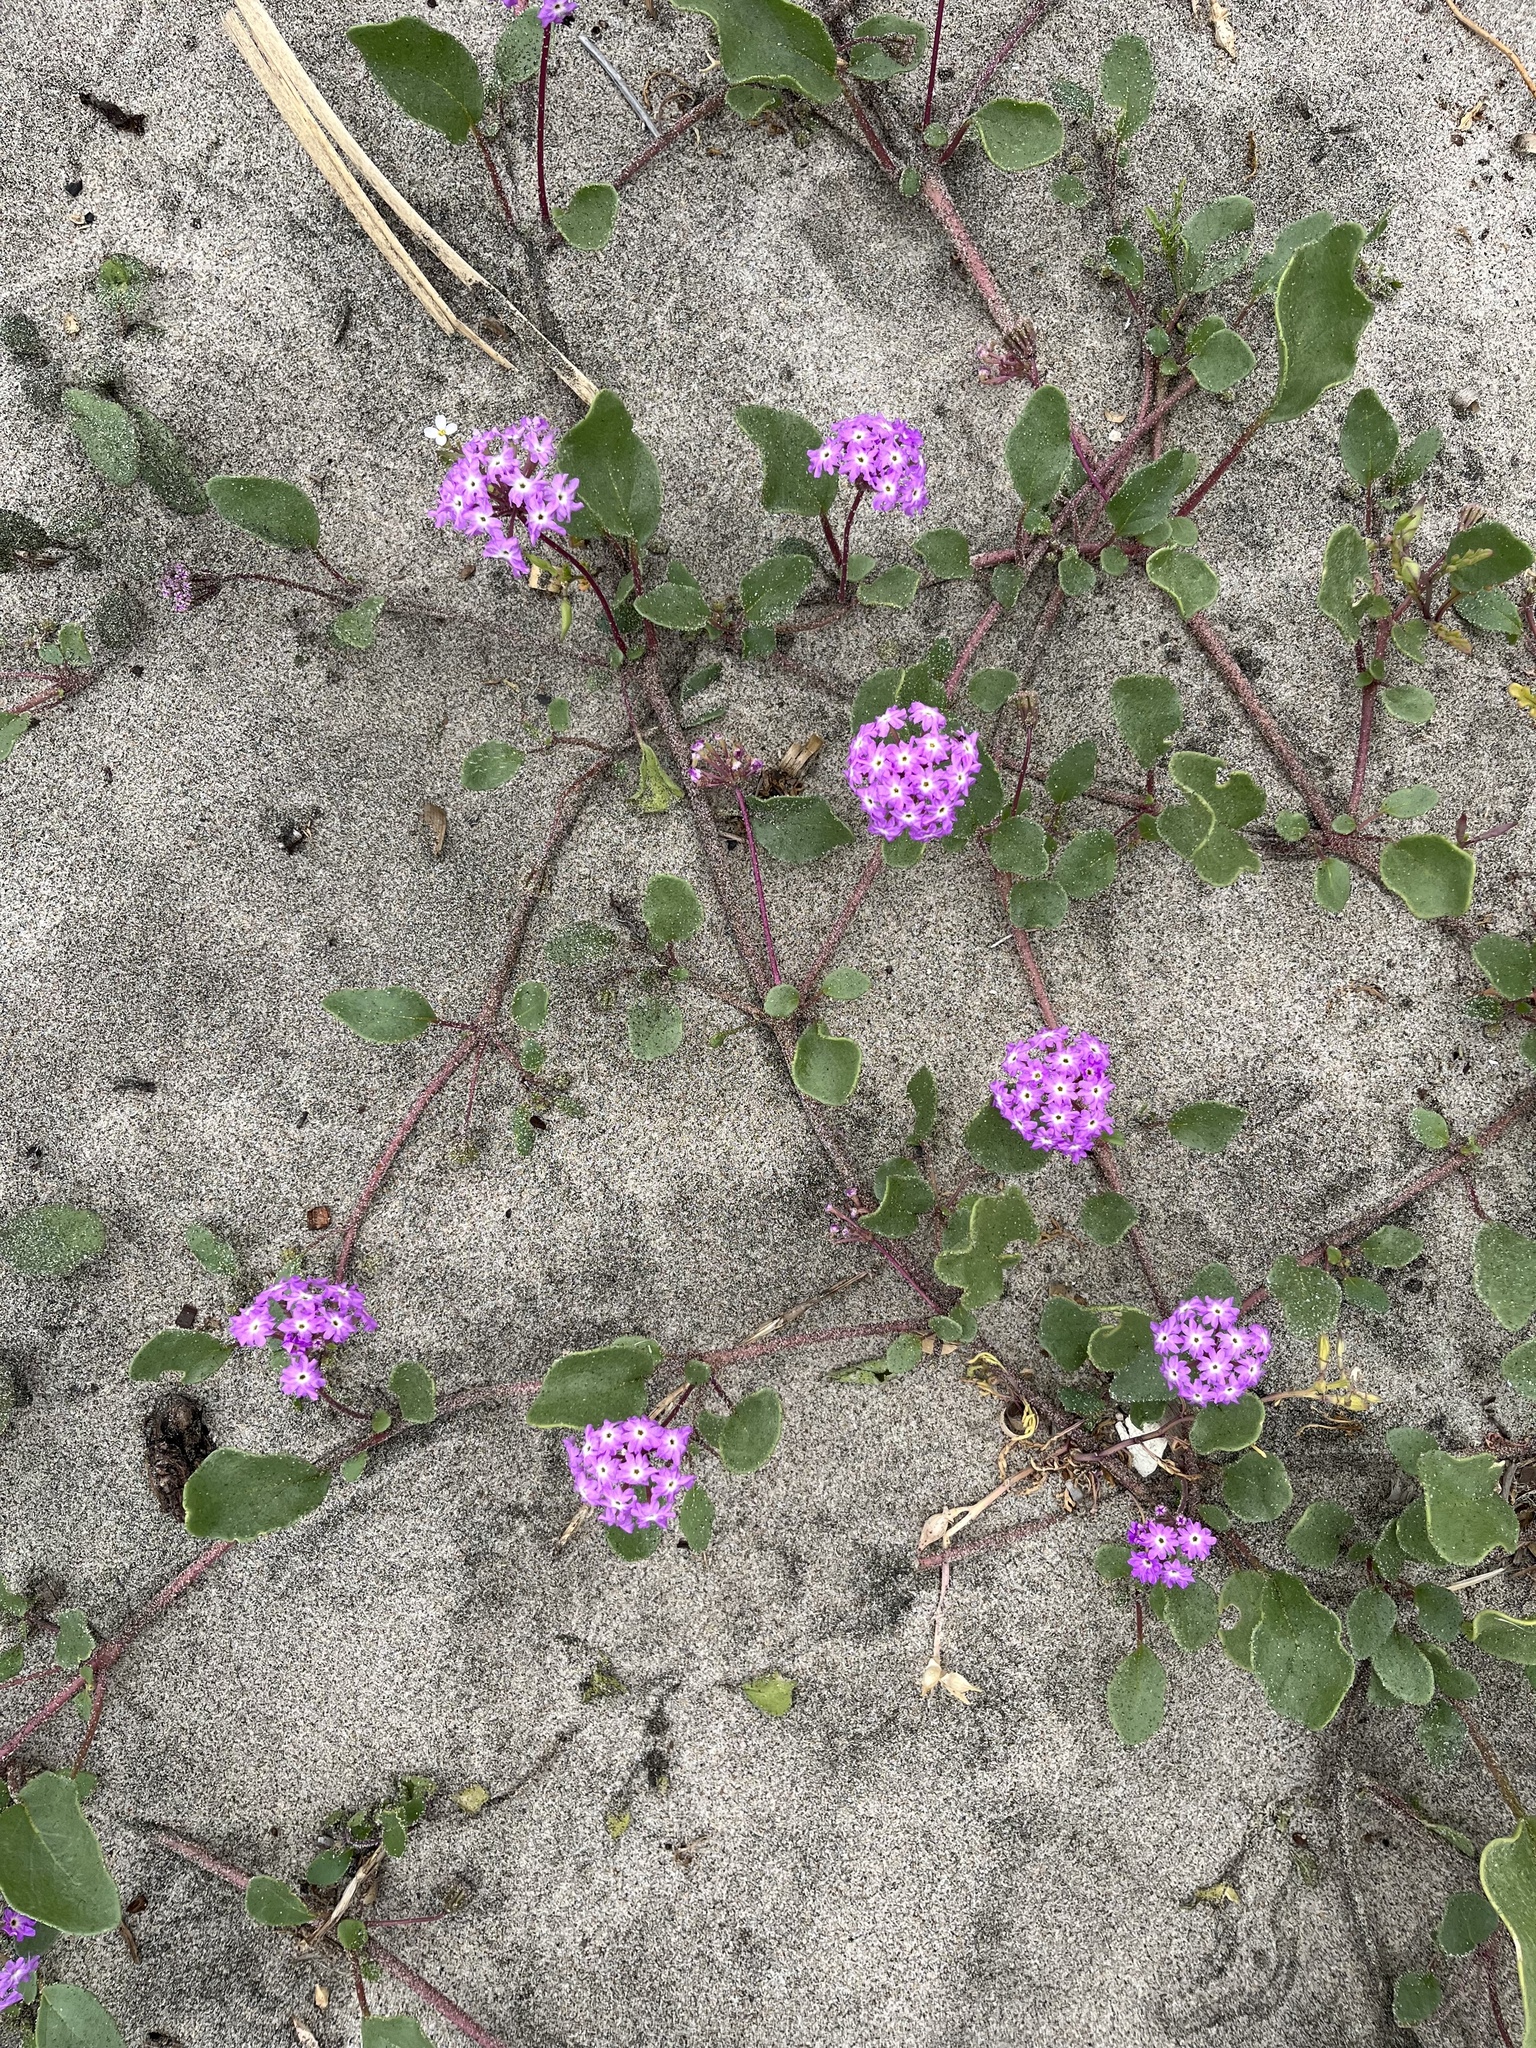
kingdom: Plantae
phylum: Tracheophyta
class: Magnoliopsida
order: Caryophyllales
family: Nyctaginaceae
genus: Abronia
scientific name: Abronia umbellata
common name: Sand-verbena
